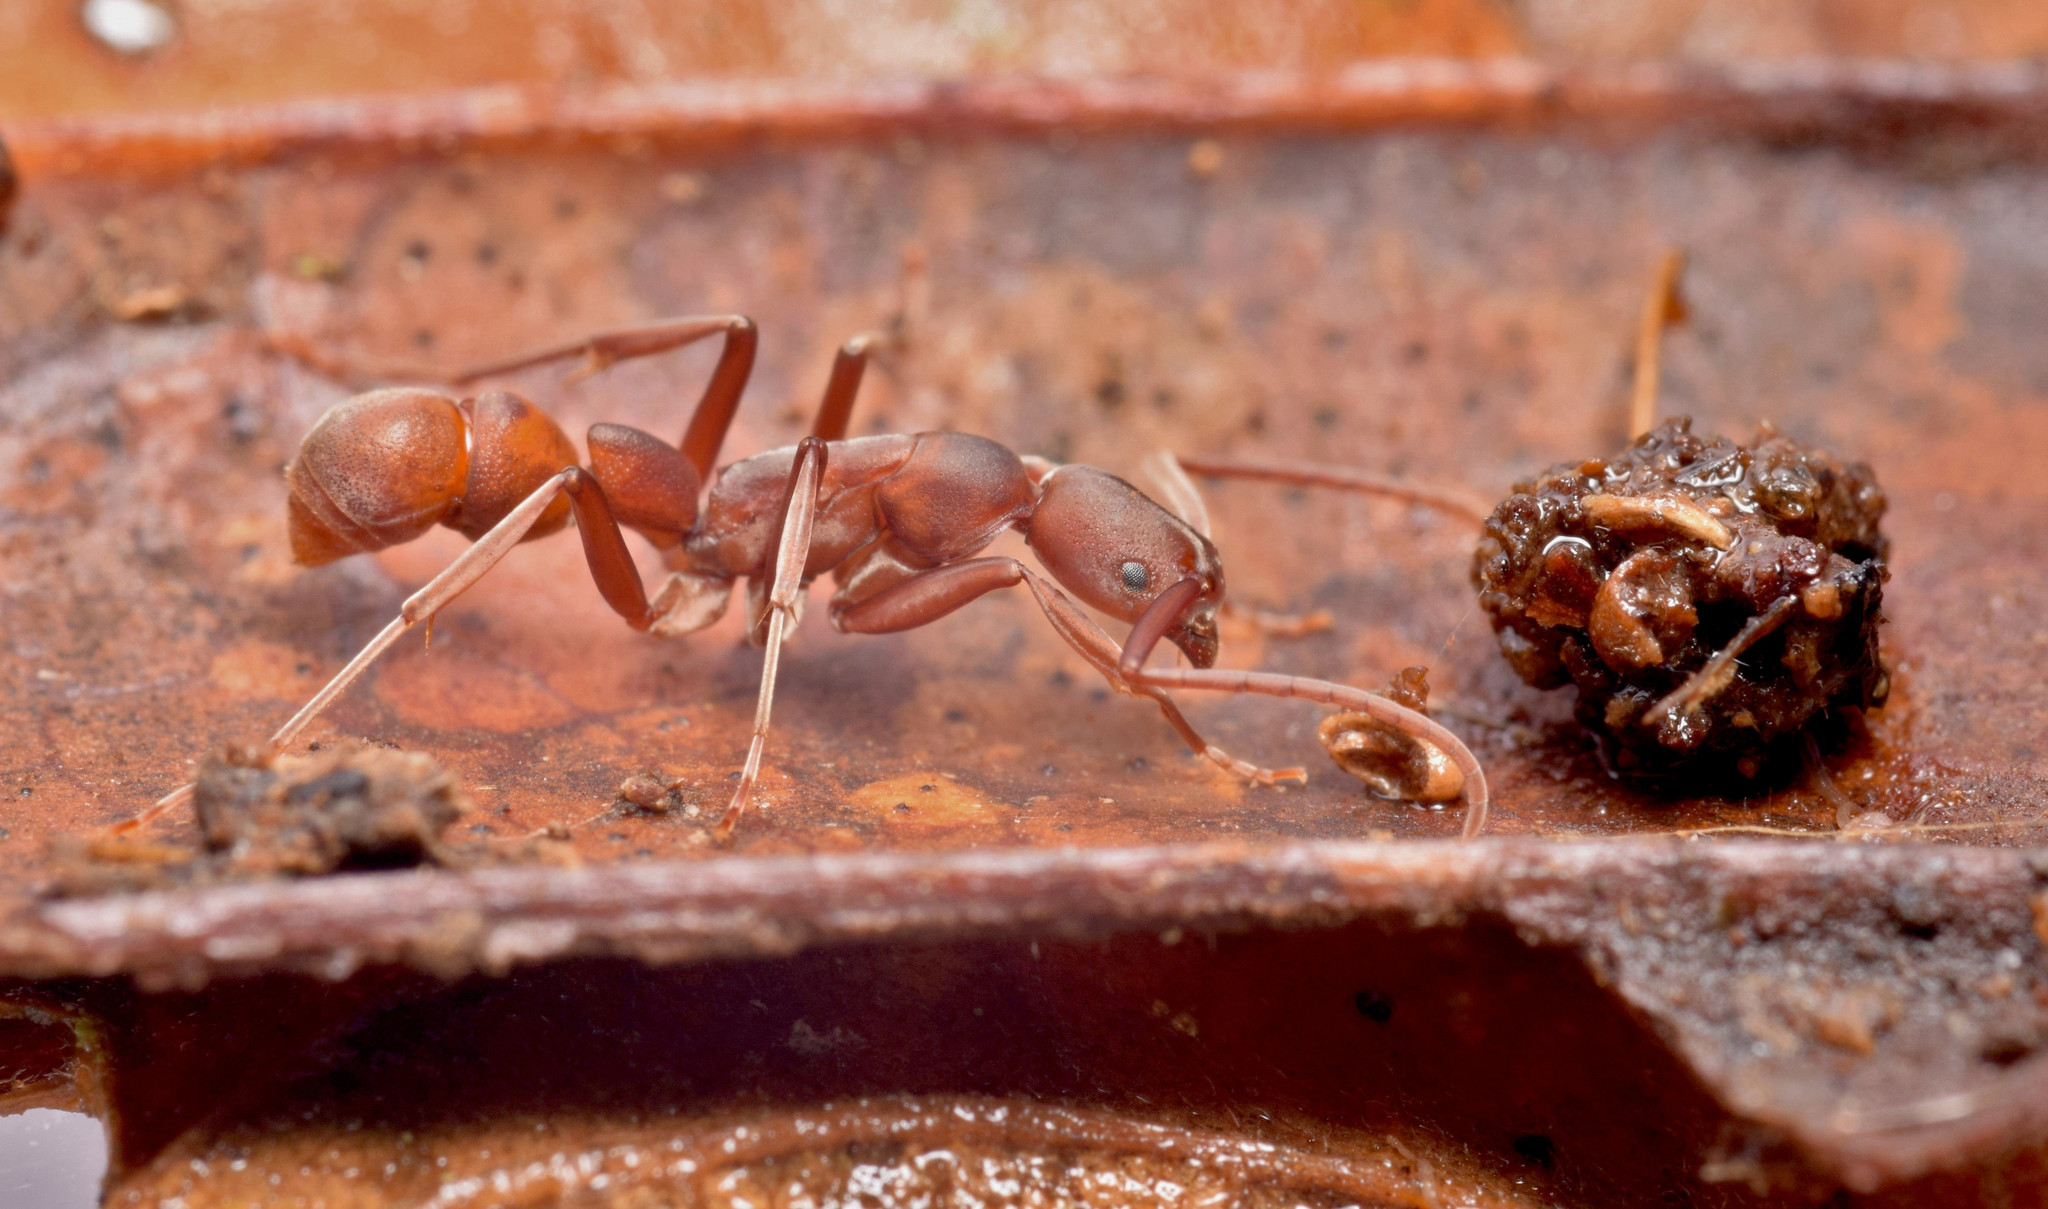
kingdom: Animalia
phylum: Arthropoda
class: Insecta
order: Hymenoptera
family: Formicidae
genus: Platythyrea
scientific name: Platythyrea prizo
